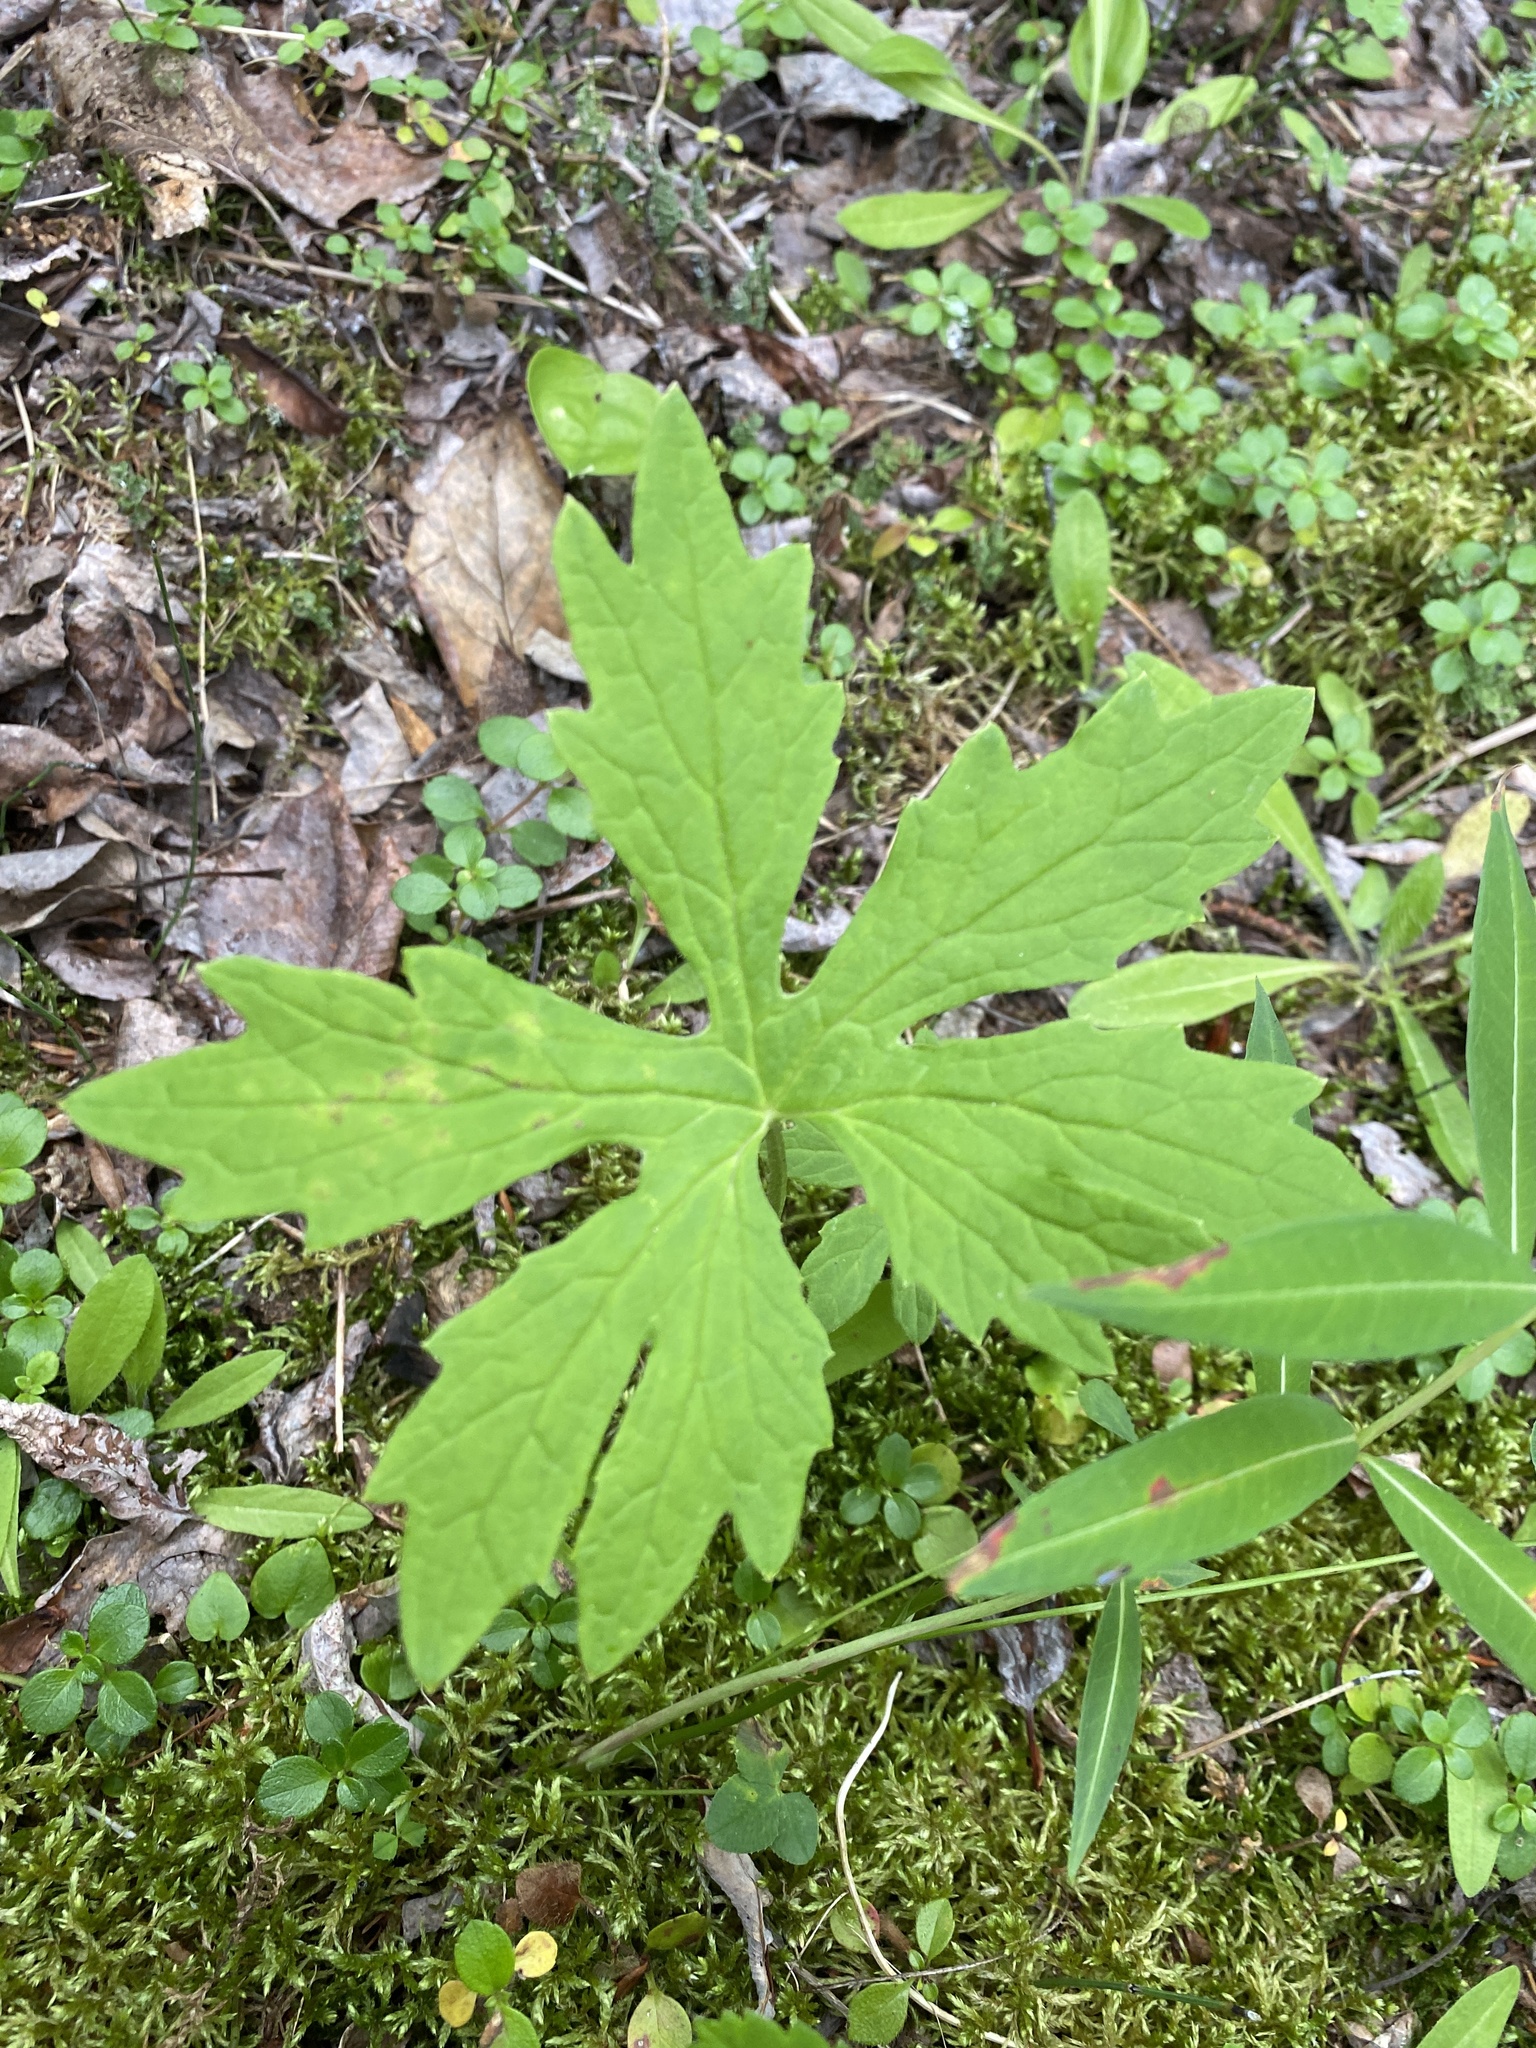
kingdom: Plantae
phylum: Tracheophyta
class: Magnoliopsida
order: Asterales
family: Asteraceae
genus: Petasites
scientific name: Petasites frigidus
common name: Arctic butterbur
